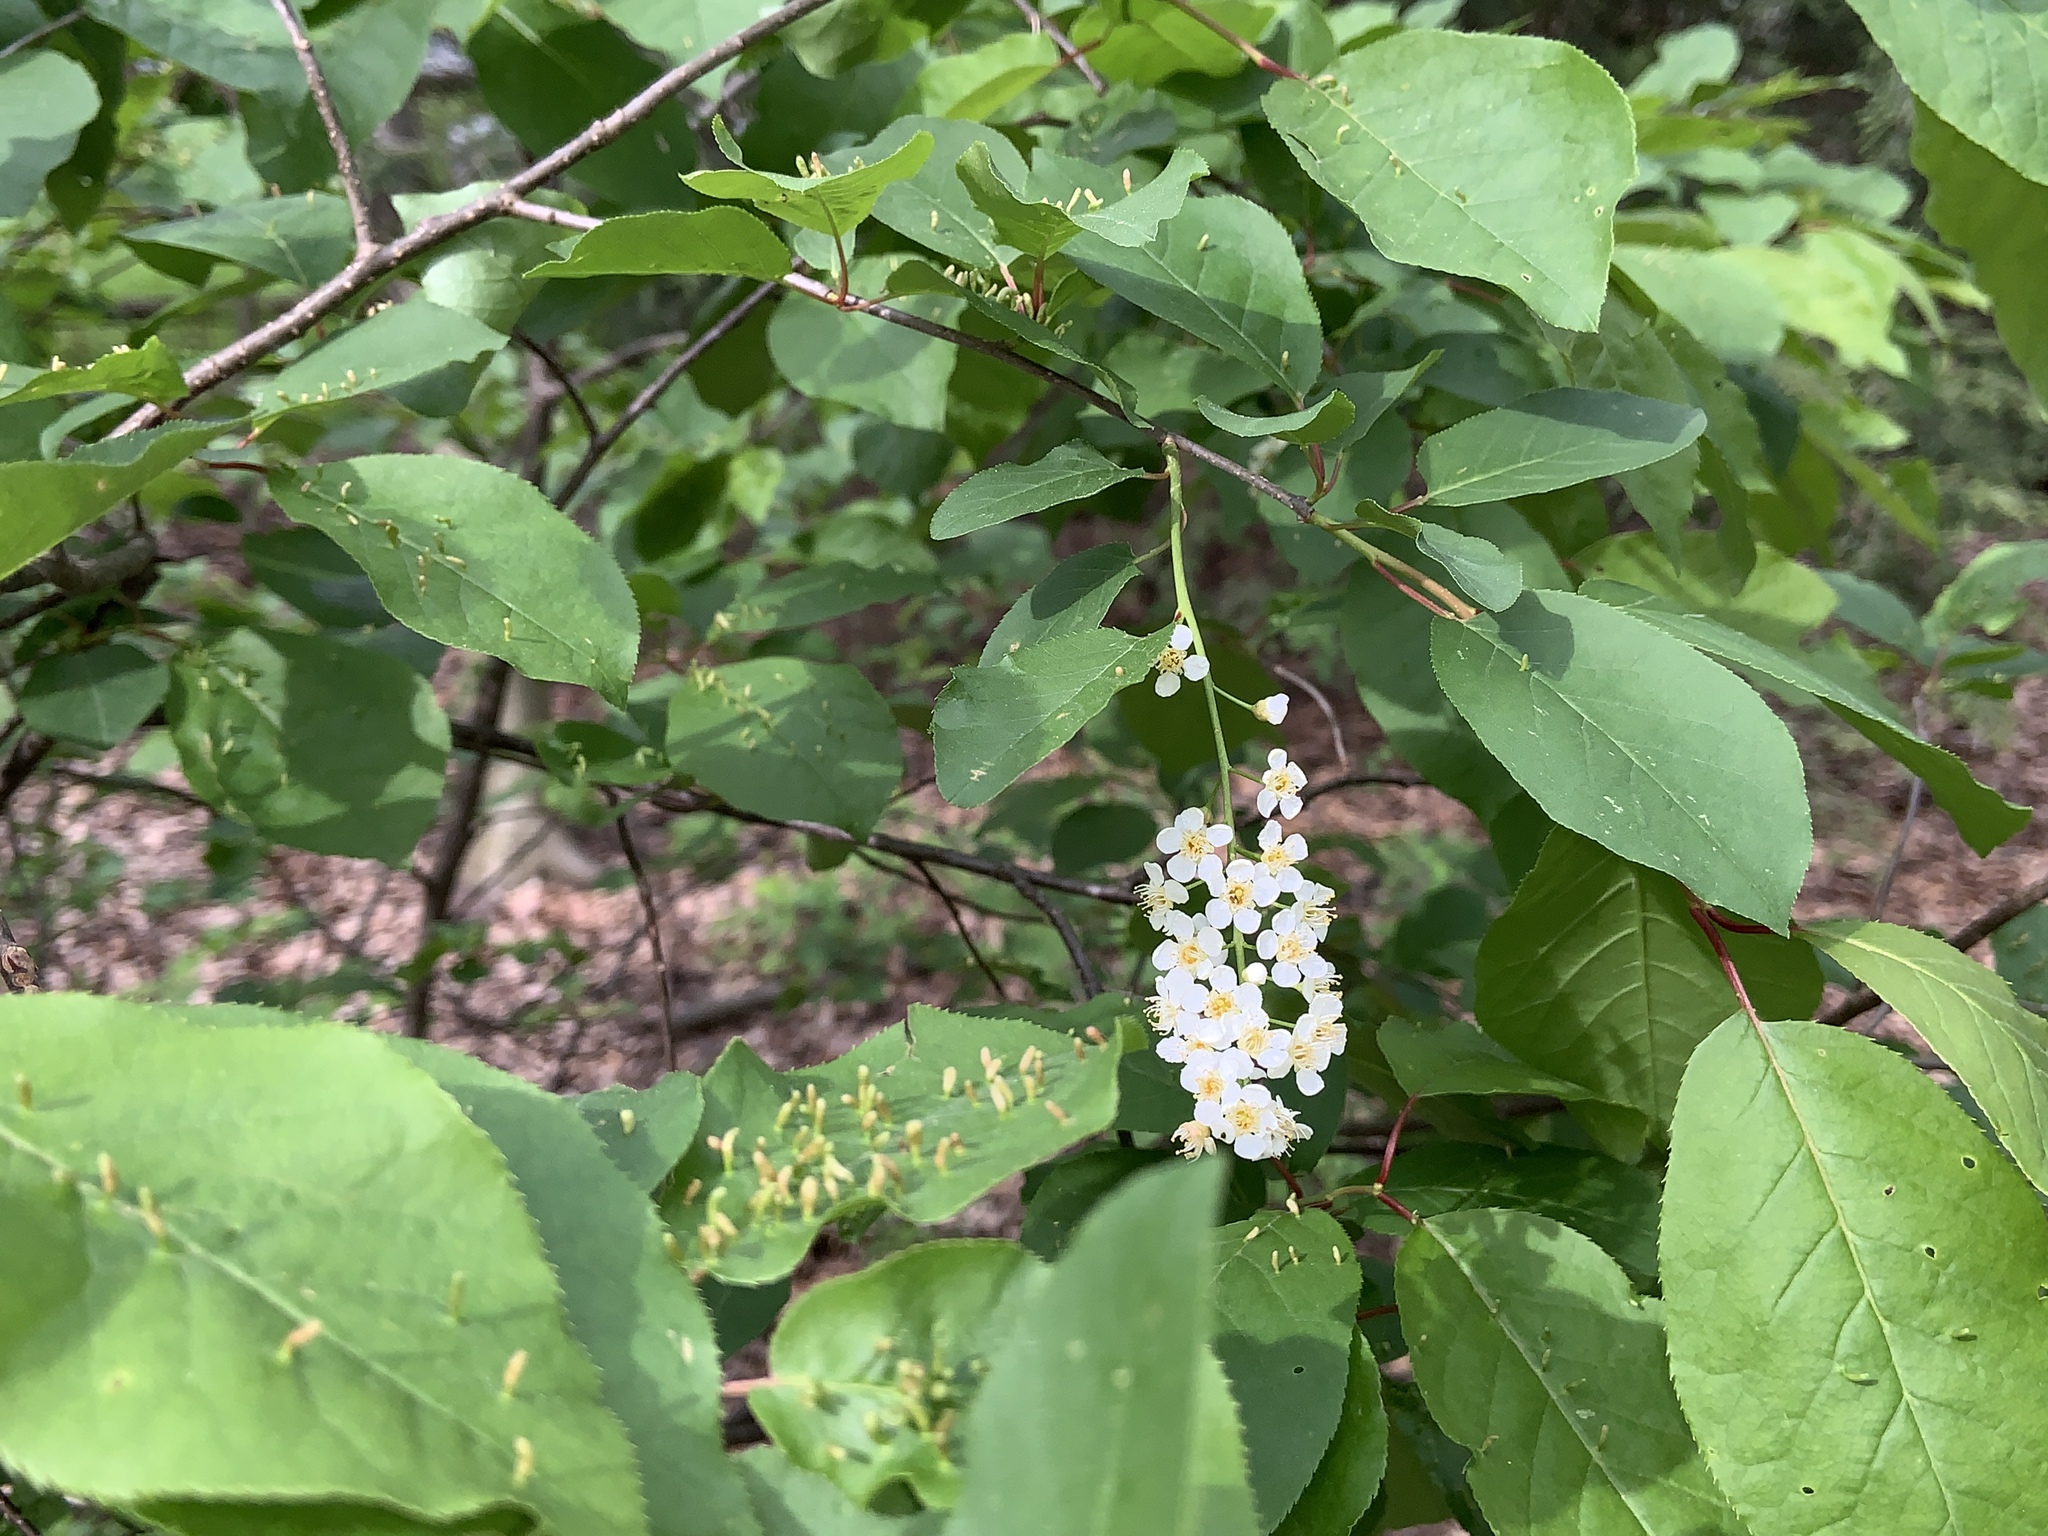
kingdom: Plantae
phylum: Tracheophyta
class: Magnoliopsida
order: Rosales
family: Rosaceae
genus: Prunus
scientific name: Prunus virginiana
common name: Chokecherry
